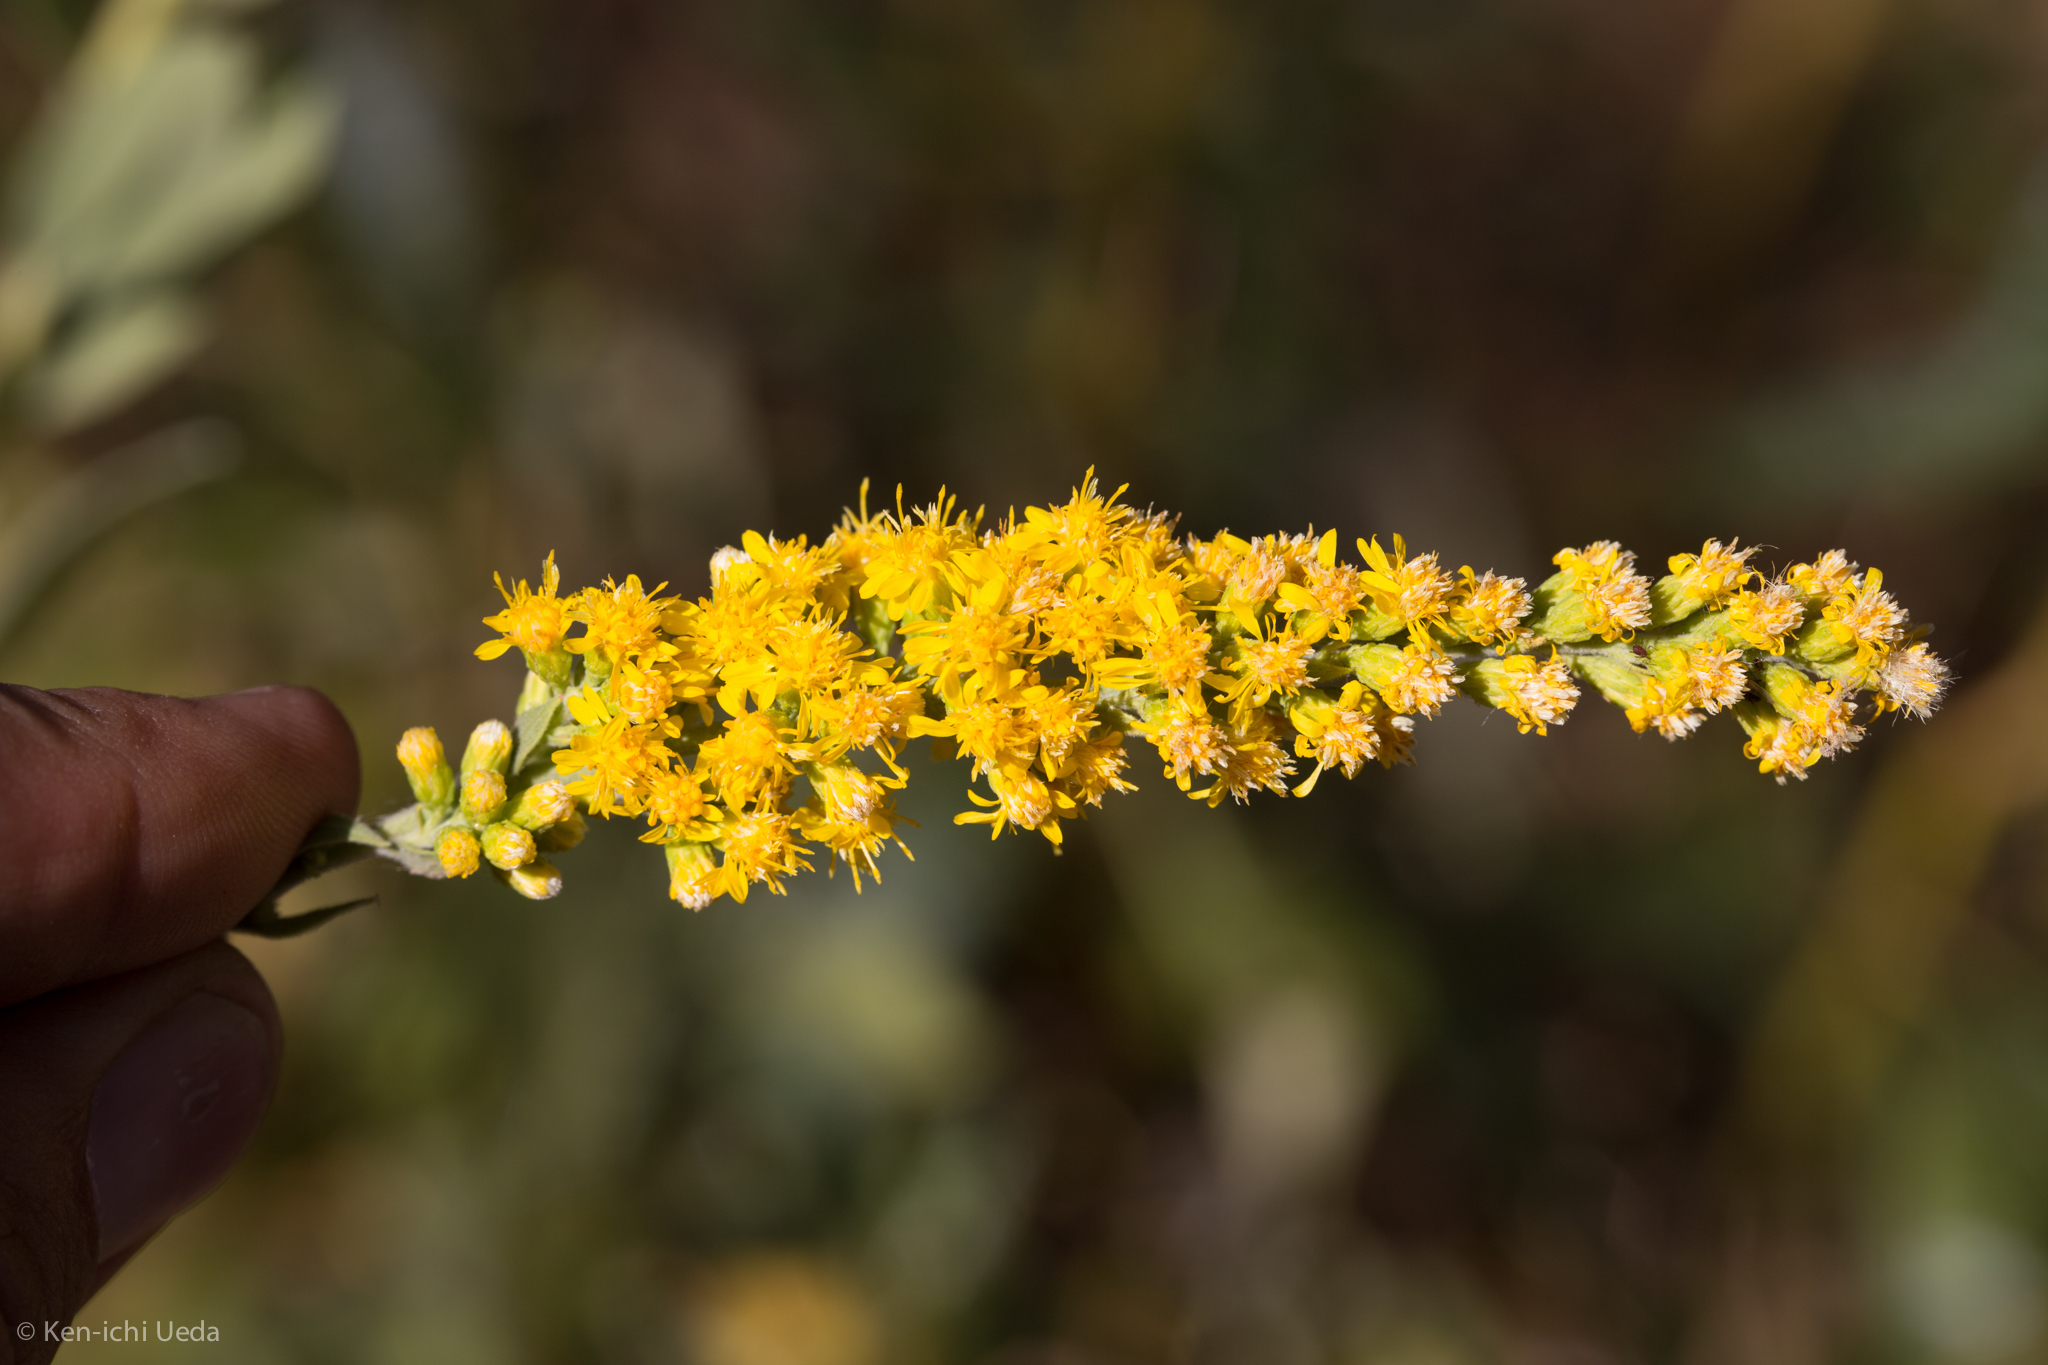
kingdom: Plantae
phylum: Tracheophyta
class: Magnoliopsida
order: Asterales
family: Asteraceae
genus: Solidago
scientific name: Solidago velutina
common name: Three-nerve goldenrod
